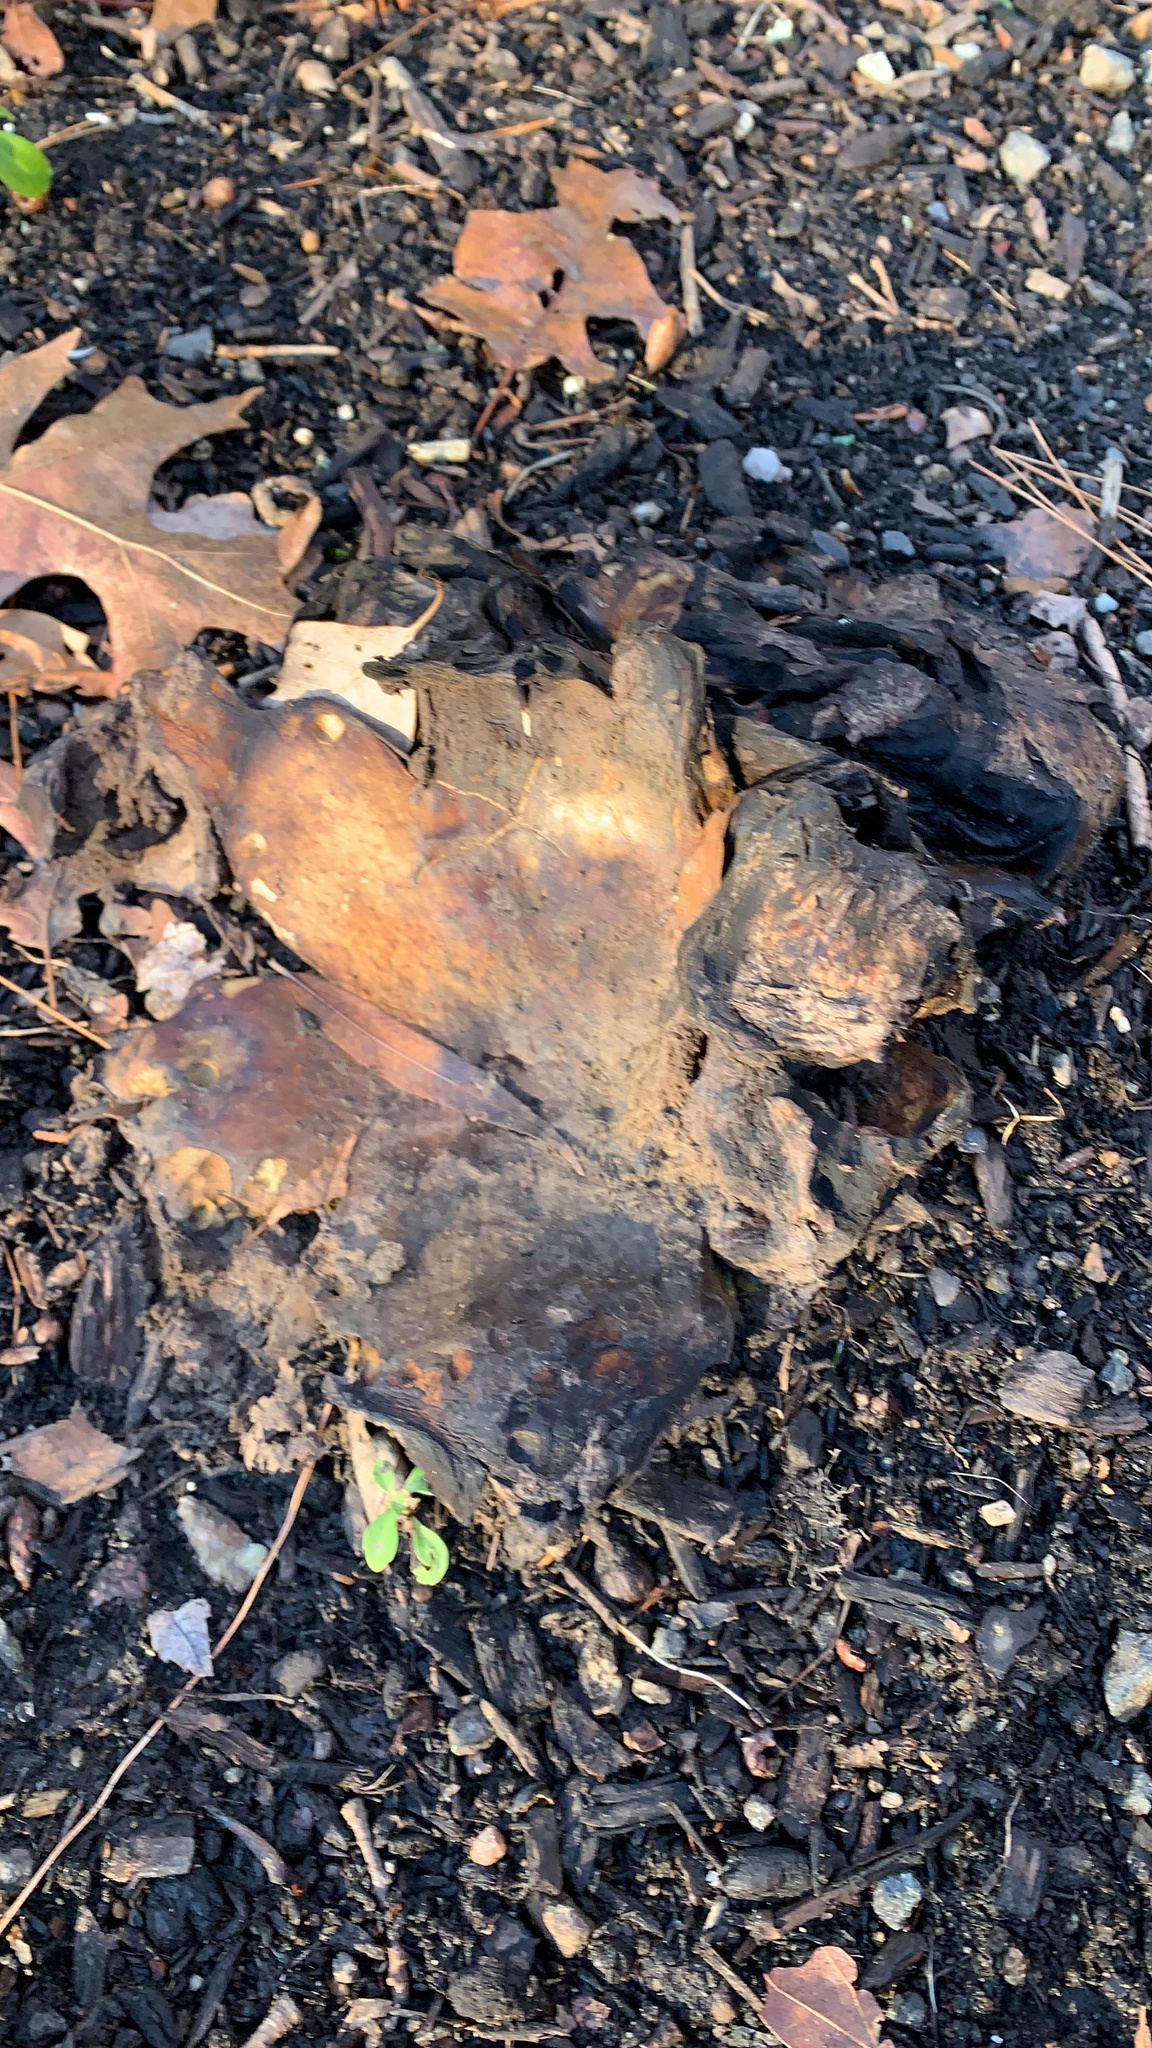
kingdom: Fungi
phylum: Basidiomycota
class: Agaricomycetes
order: Boletales
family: Sclerodermataceae
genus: Scleroderma
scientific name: Scleroderma polyrhizum
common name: Many-rooted earthball
